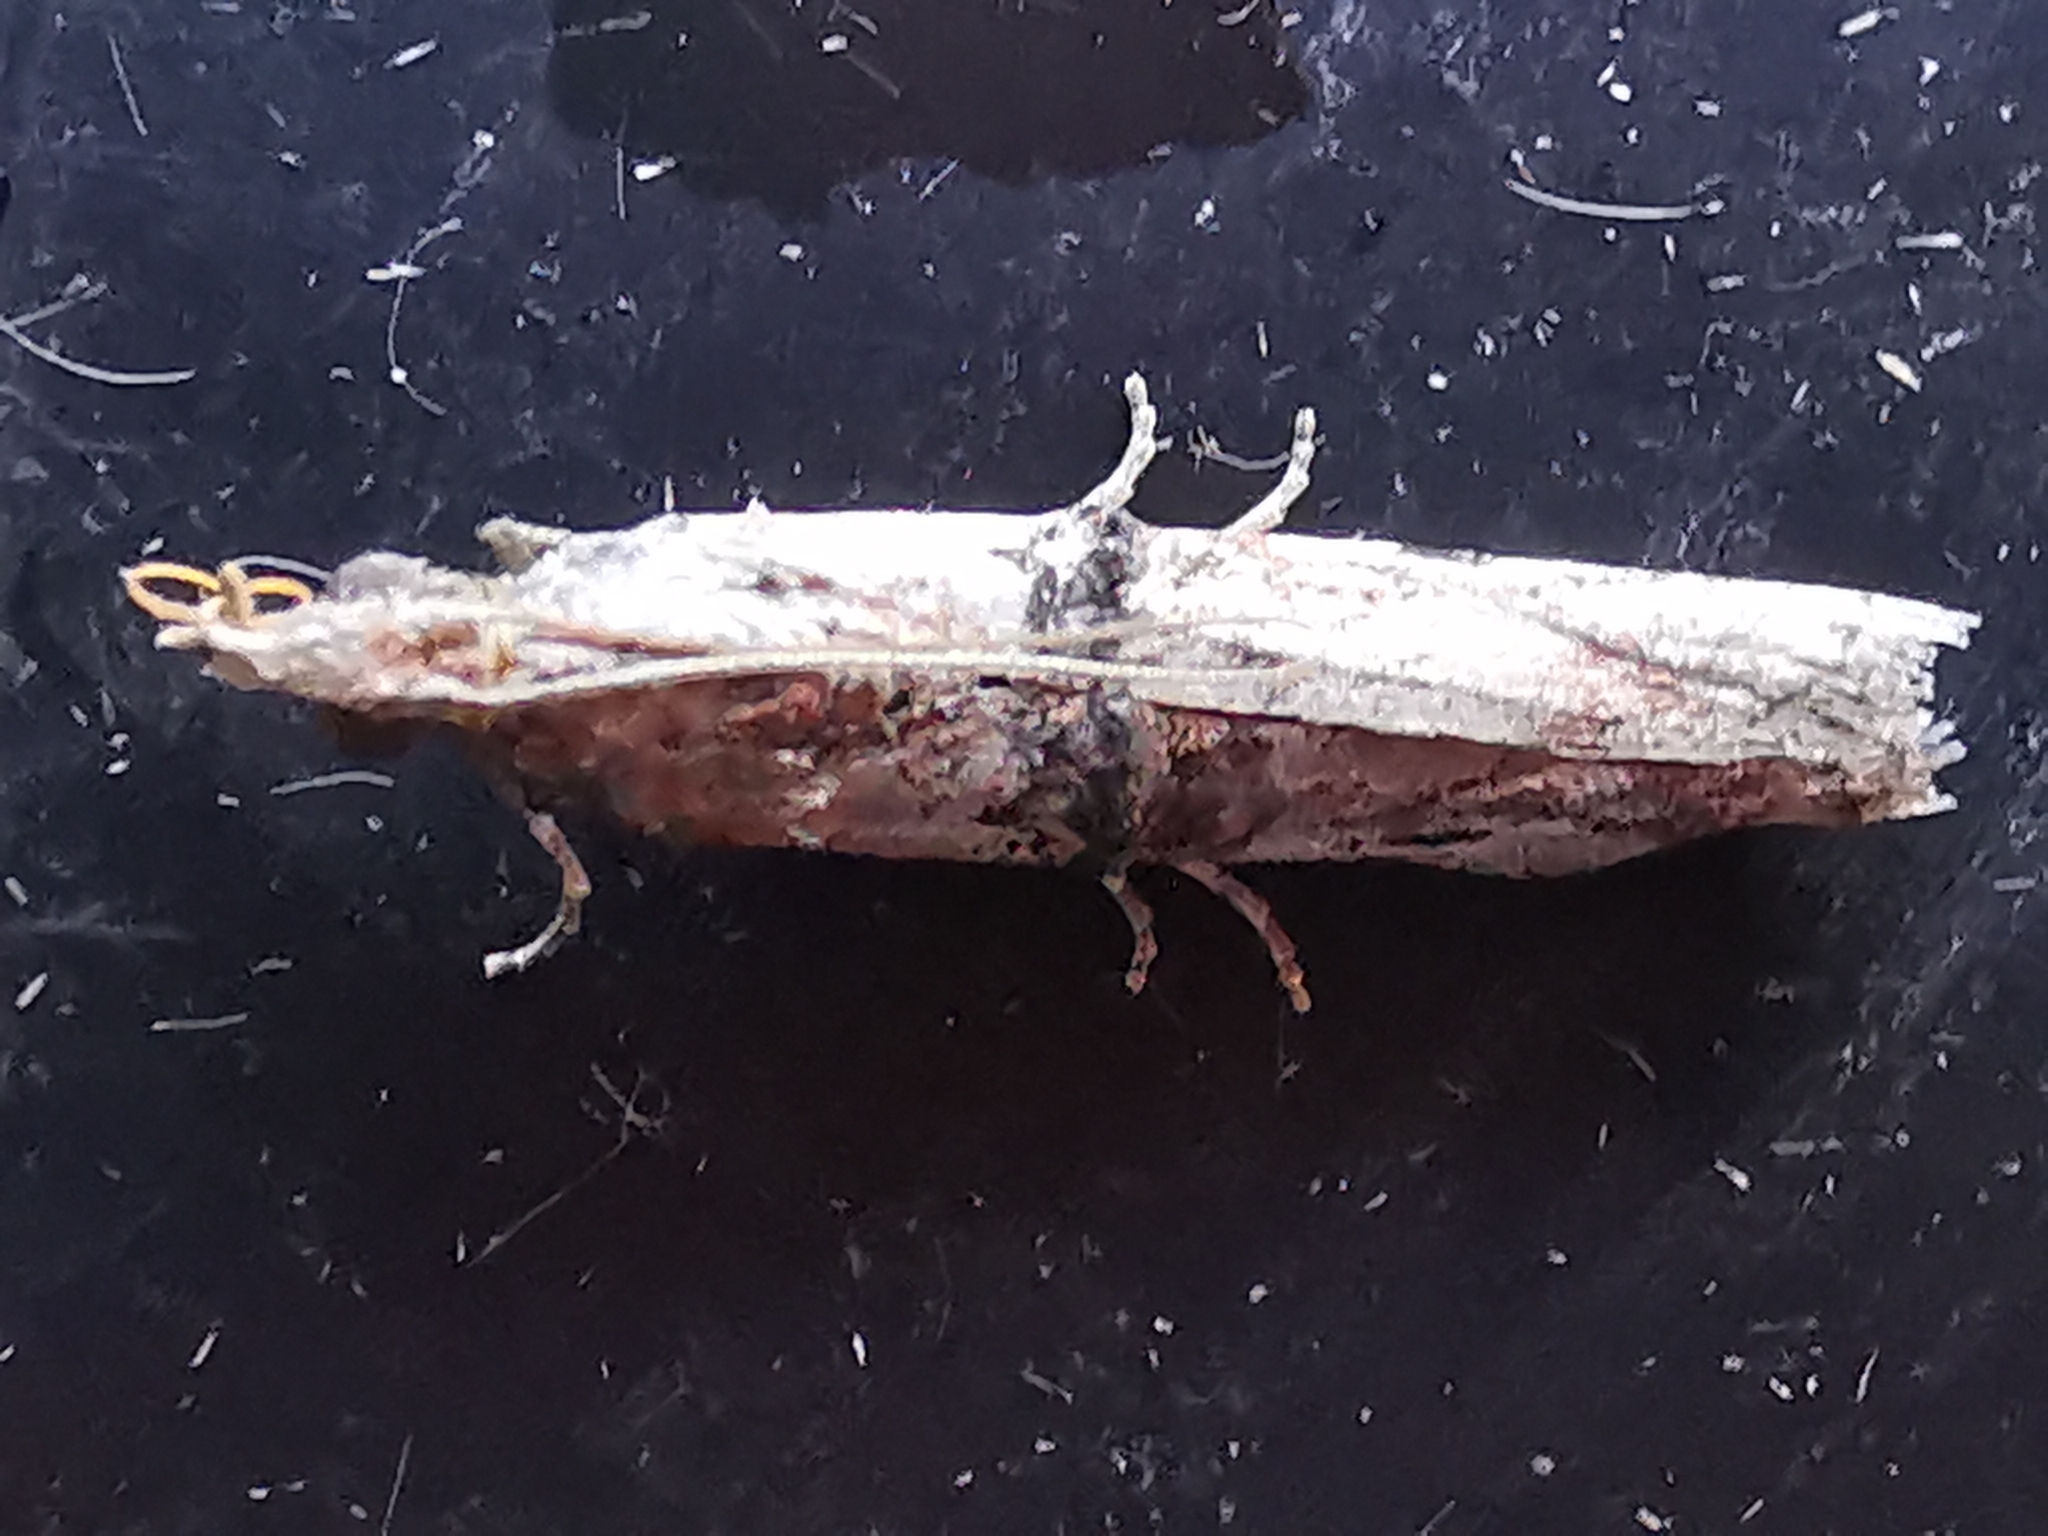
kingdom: Animalia
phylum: Arthropoda
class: Insecta
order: Lepidoptera
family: Pyralidae
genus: Nephopterix
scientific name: Nephopterix angustella
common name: Spindle knot-horn
